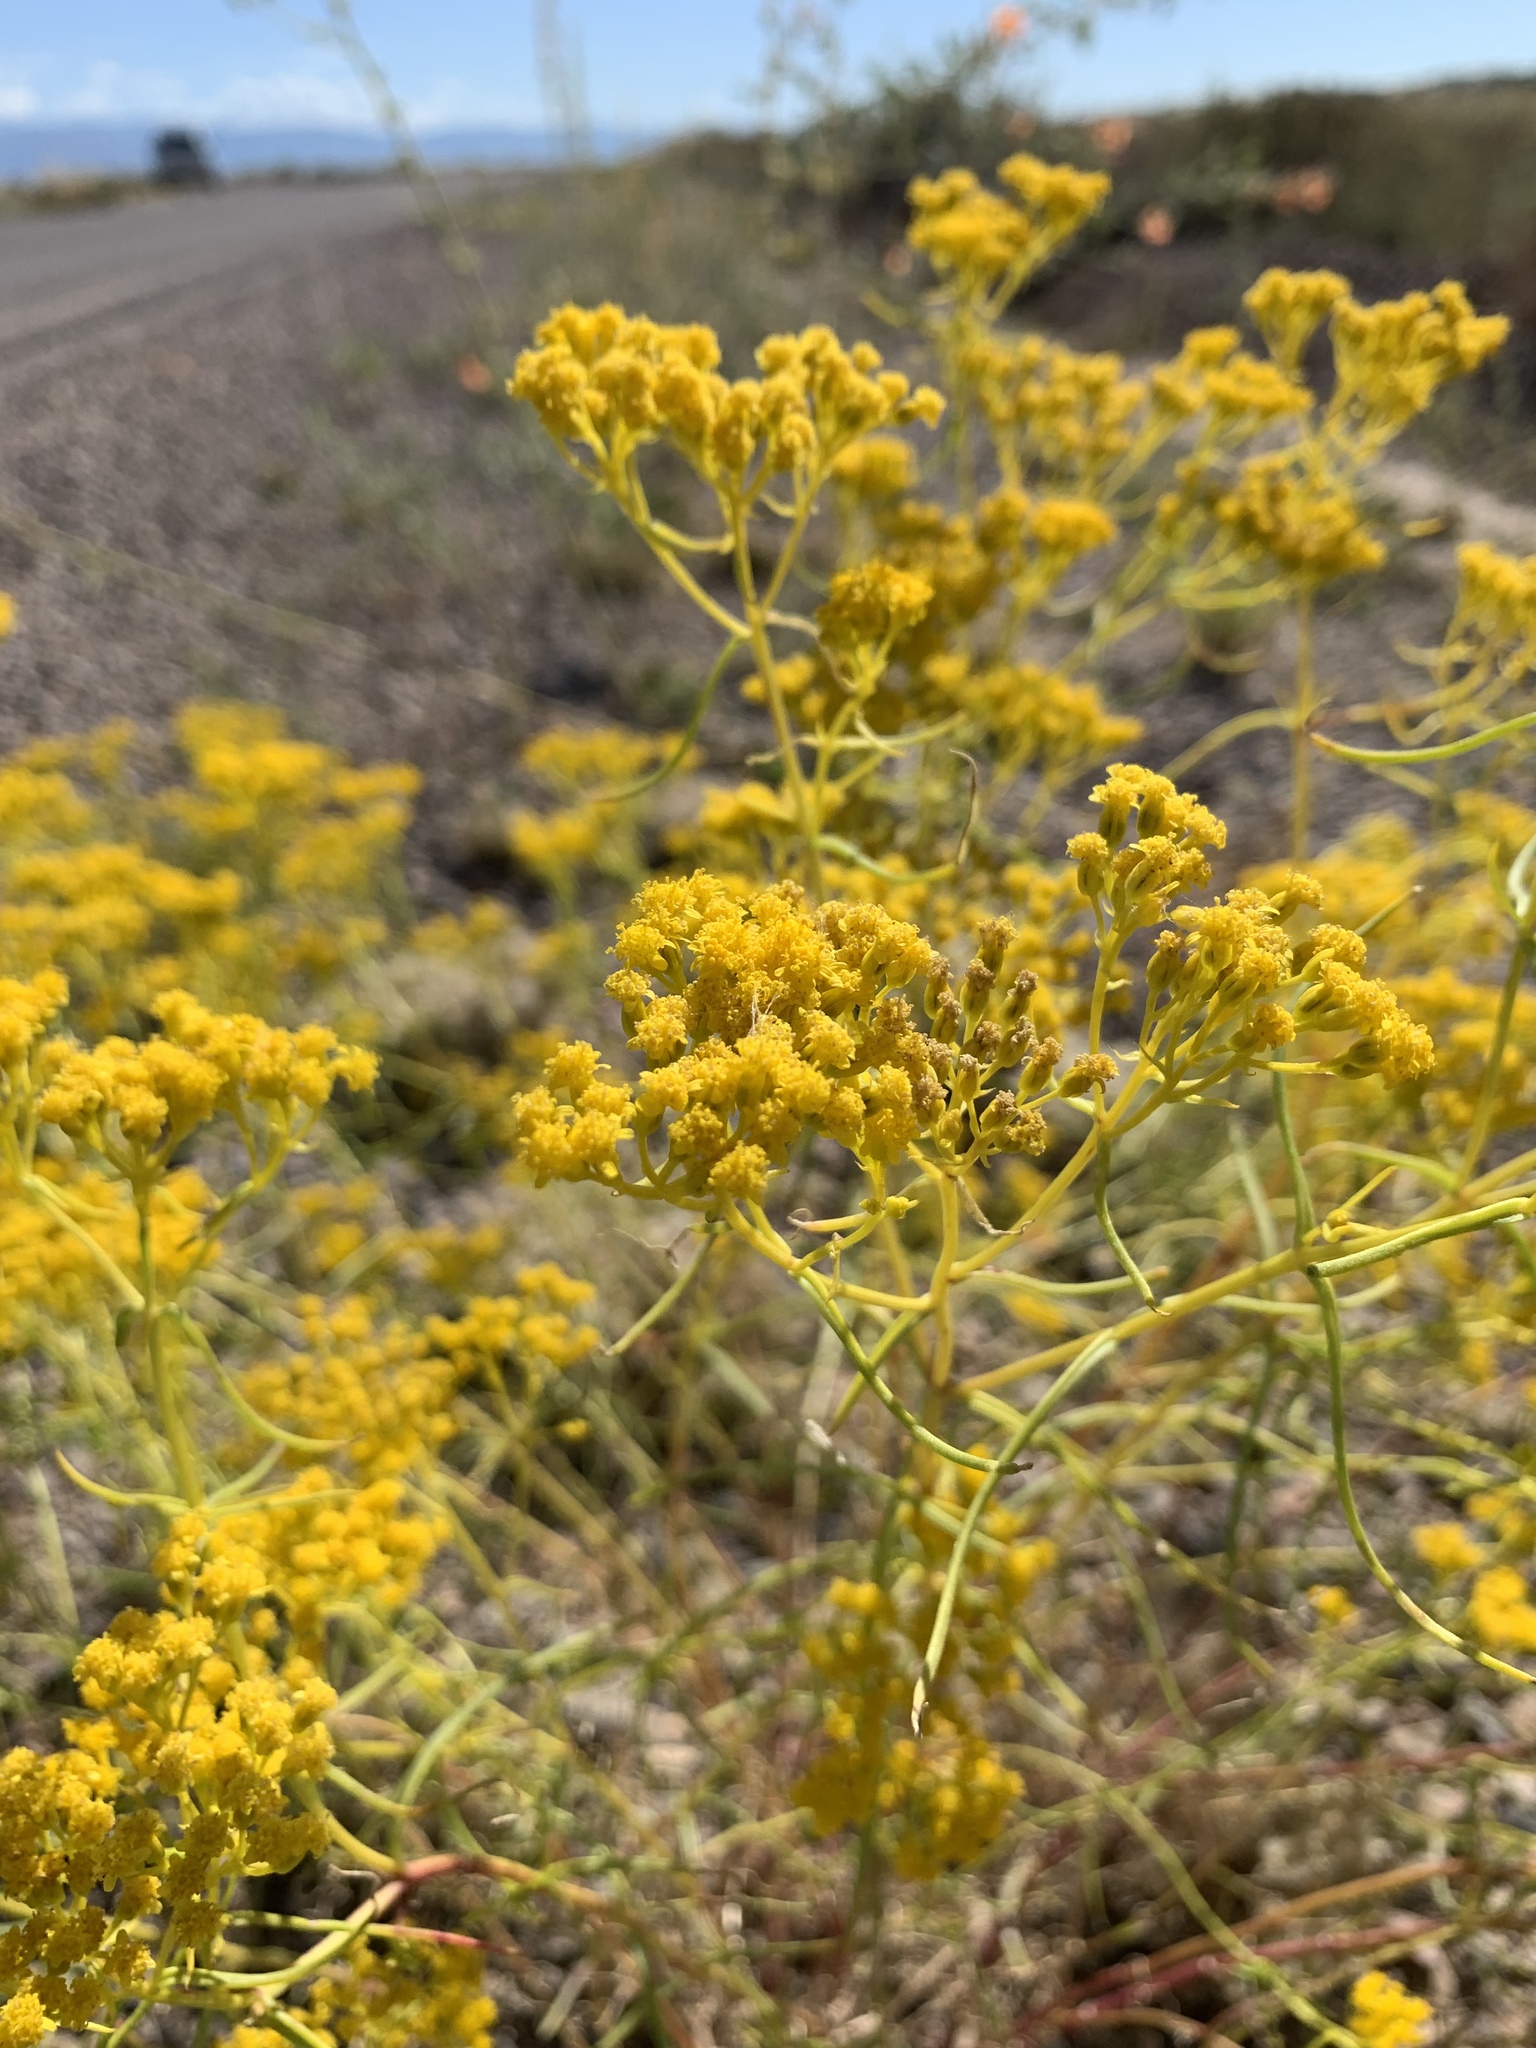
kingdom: Plantae
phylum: Tracheophyta
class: Magnoliopsida
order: Asterales
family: Asteraceae
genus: Sartwellia
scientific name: Sartwellia flaveriae
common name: Sartwellia
